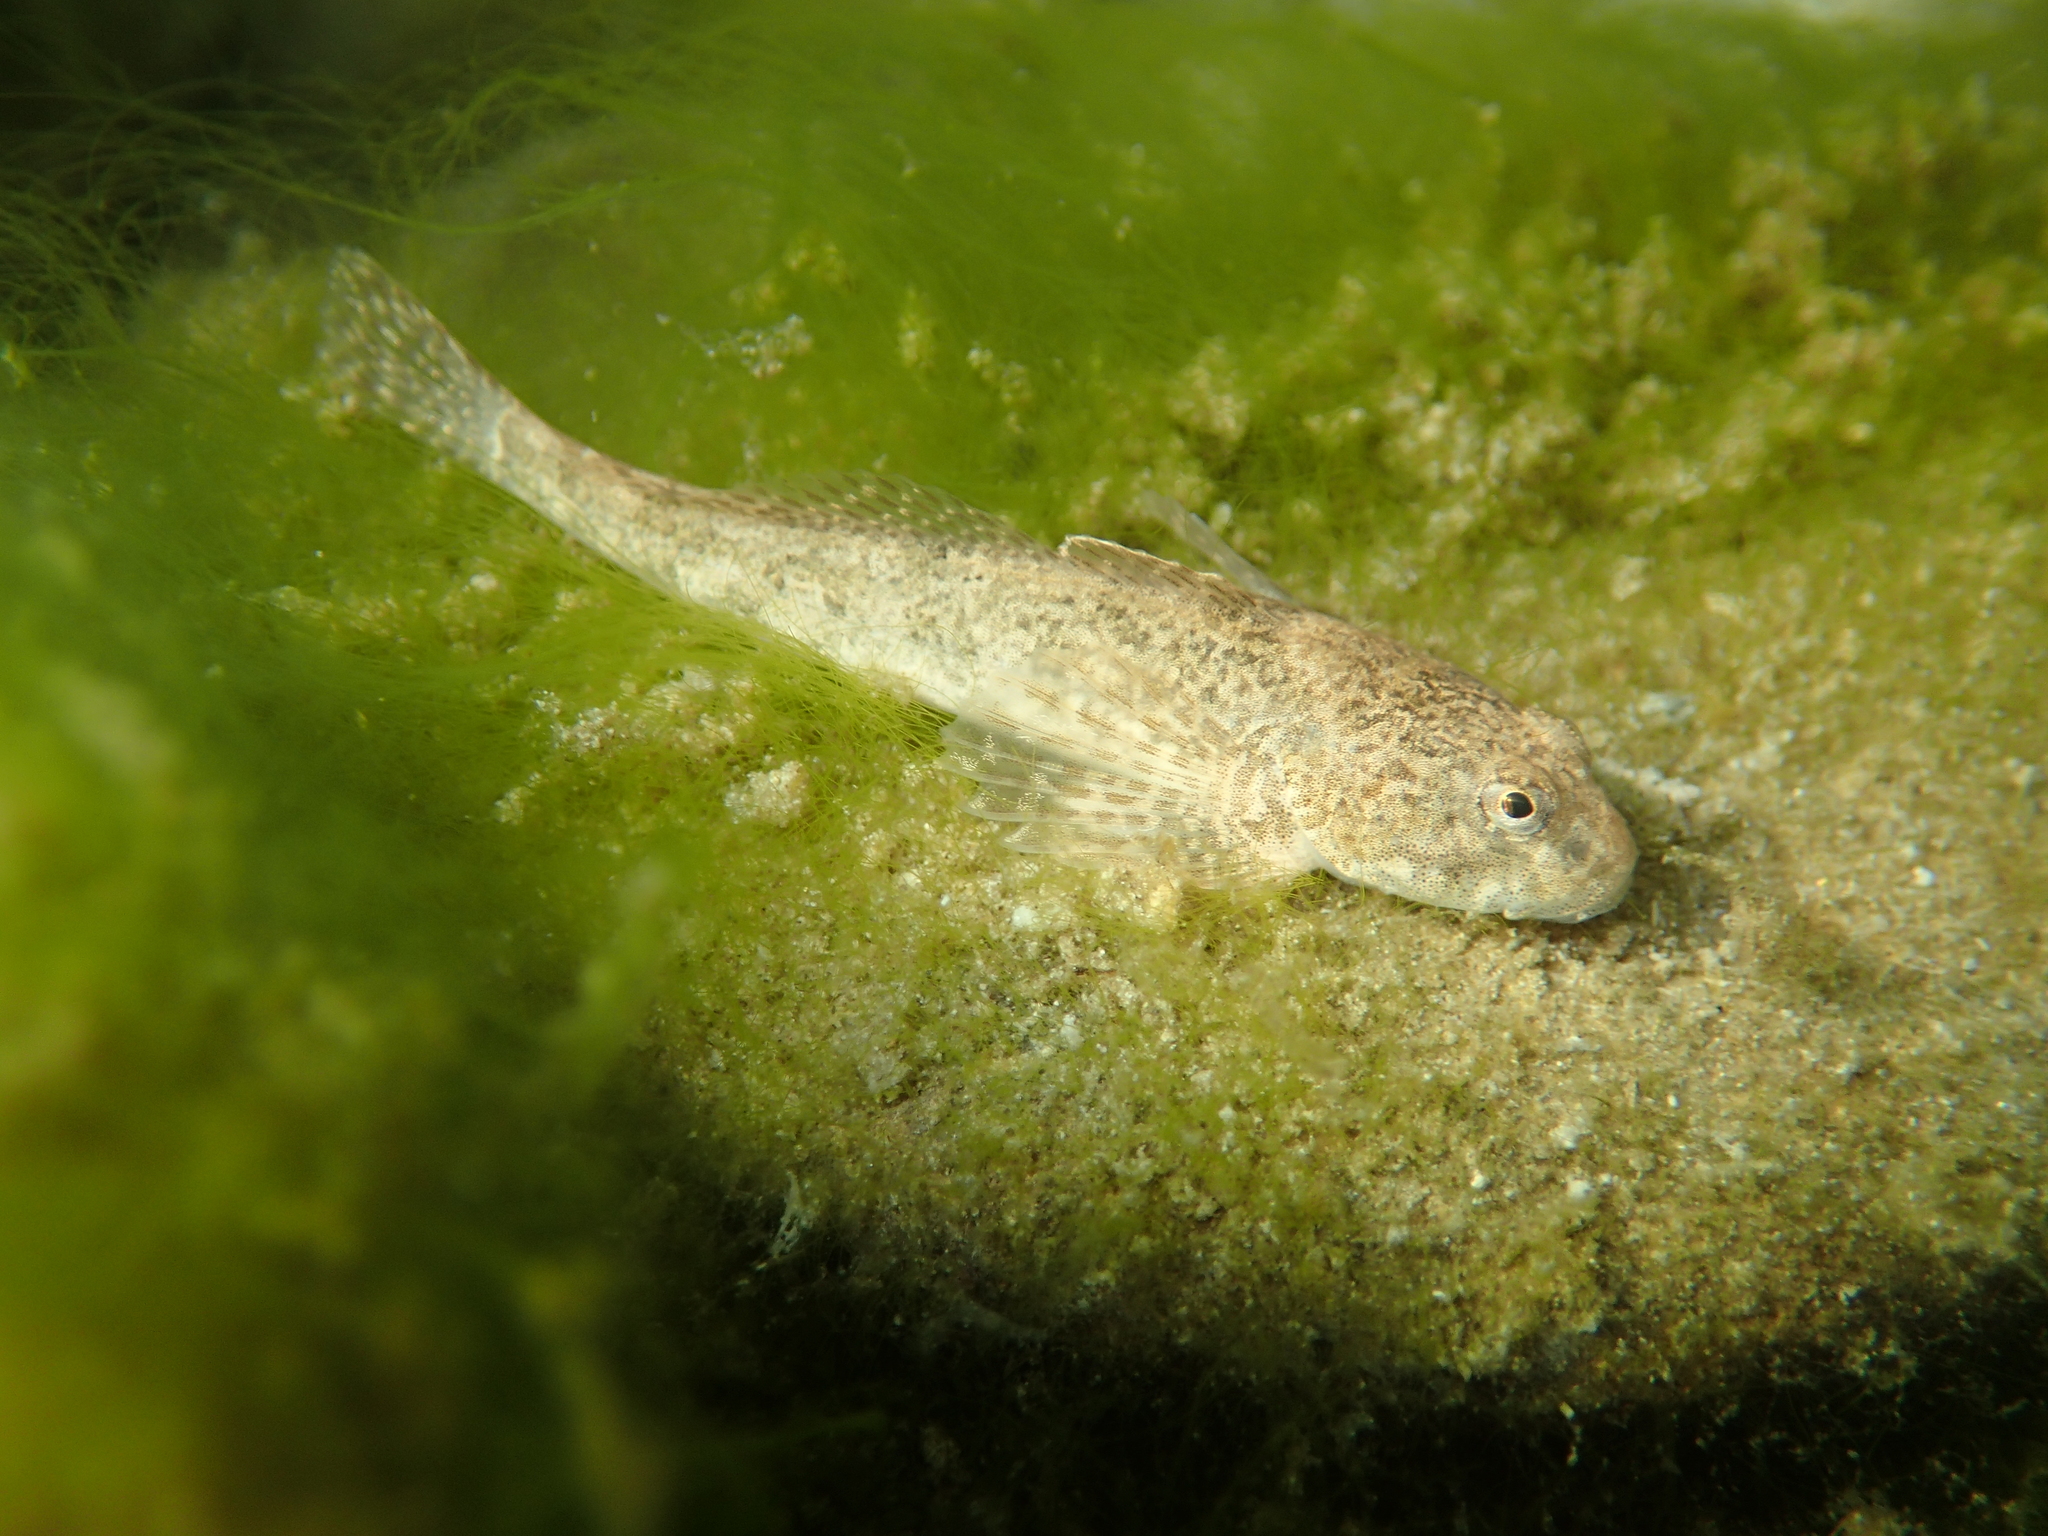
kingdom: Animalia
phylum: Chordata
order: Scorpaeniformes
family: Cottidae
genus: Cottus
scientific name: Cottus gobio
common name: Bullhead
